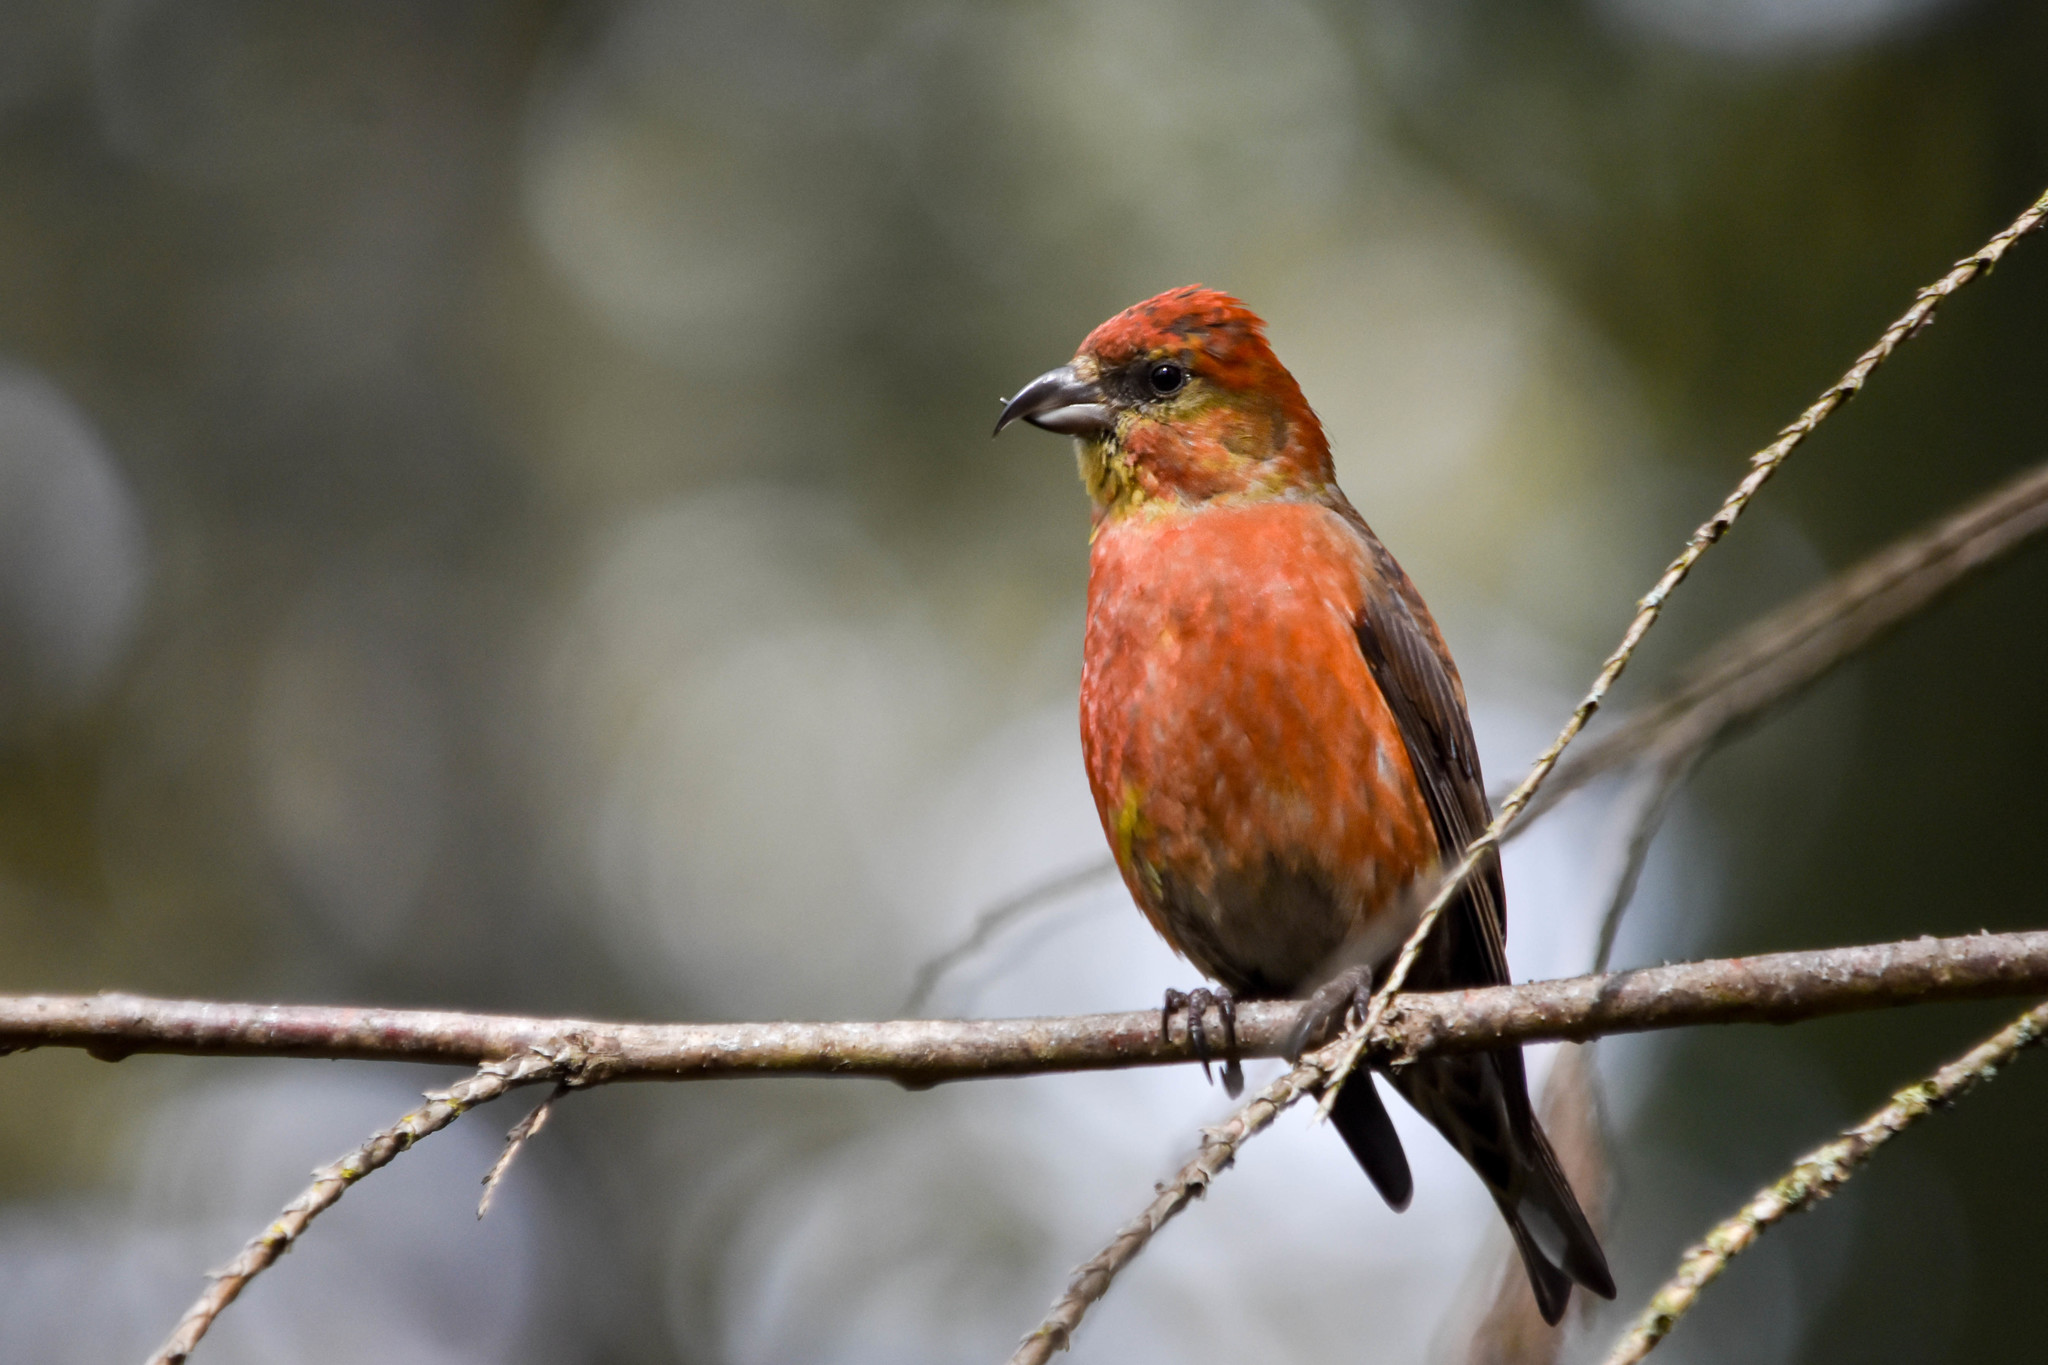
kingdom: Animalia
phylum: Chordata
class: Aves
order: Passeriformes
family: Fringillidae
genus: Loxia
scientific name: Loxia curvirostra
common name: Red crossbill
